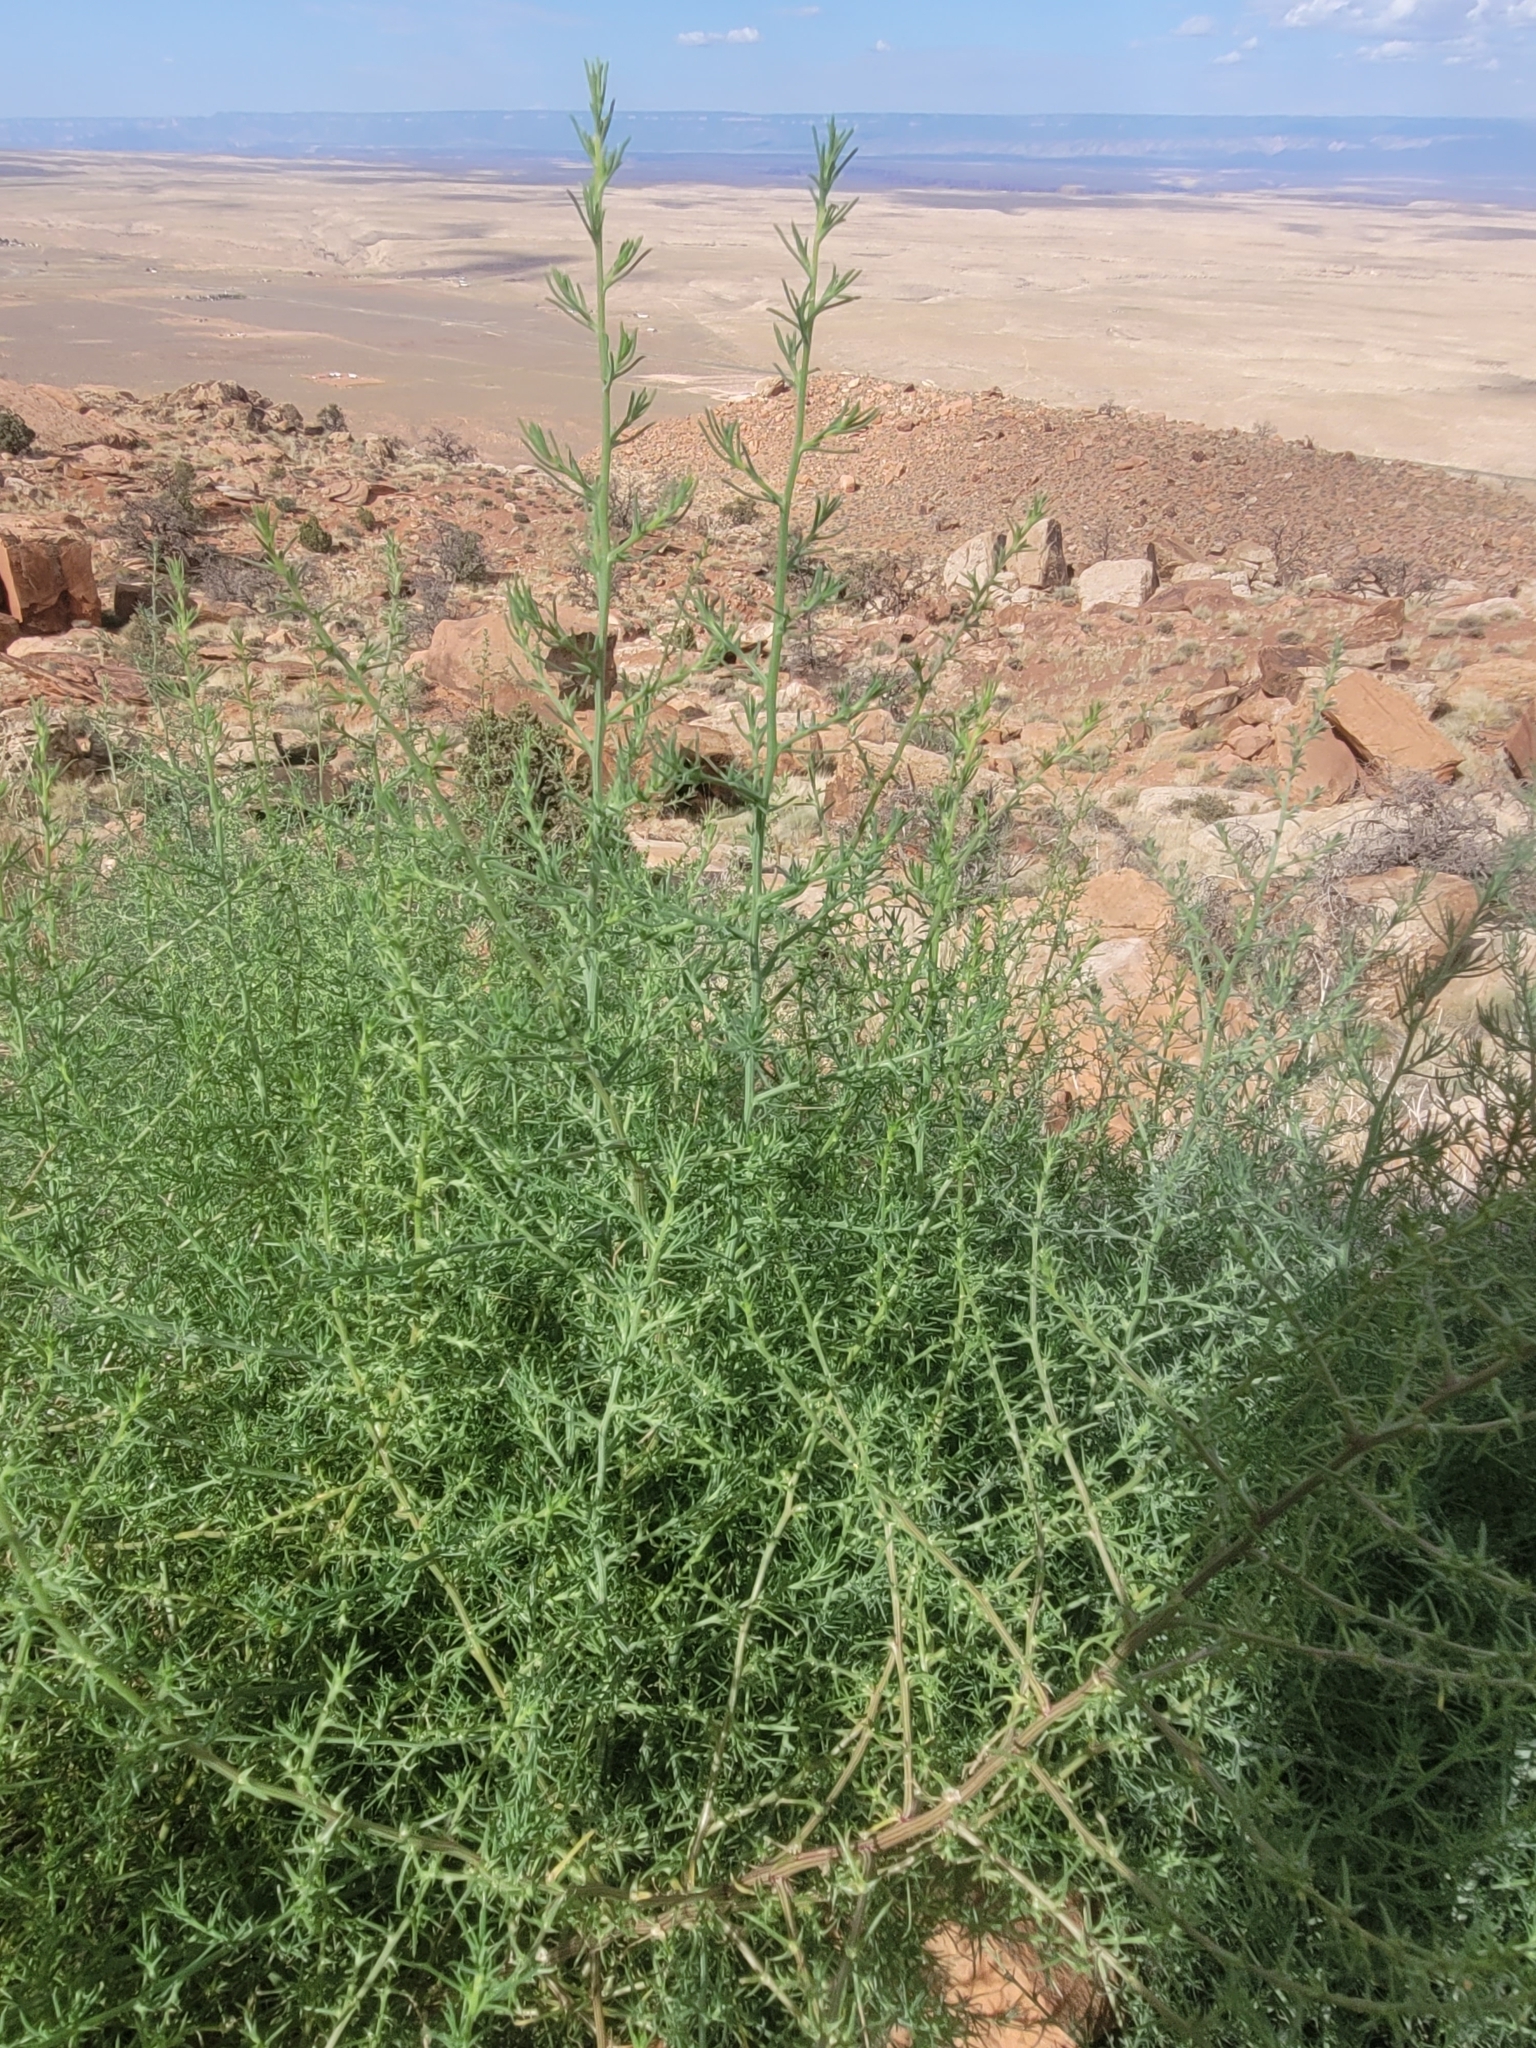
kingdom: Plantae
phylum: Tracheophyta
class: Magnoliopsida
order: Caryophyllales
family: Amaranthaceae
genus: Salsola
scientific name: Salsola tragus
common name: Prickly russian thistle
